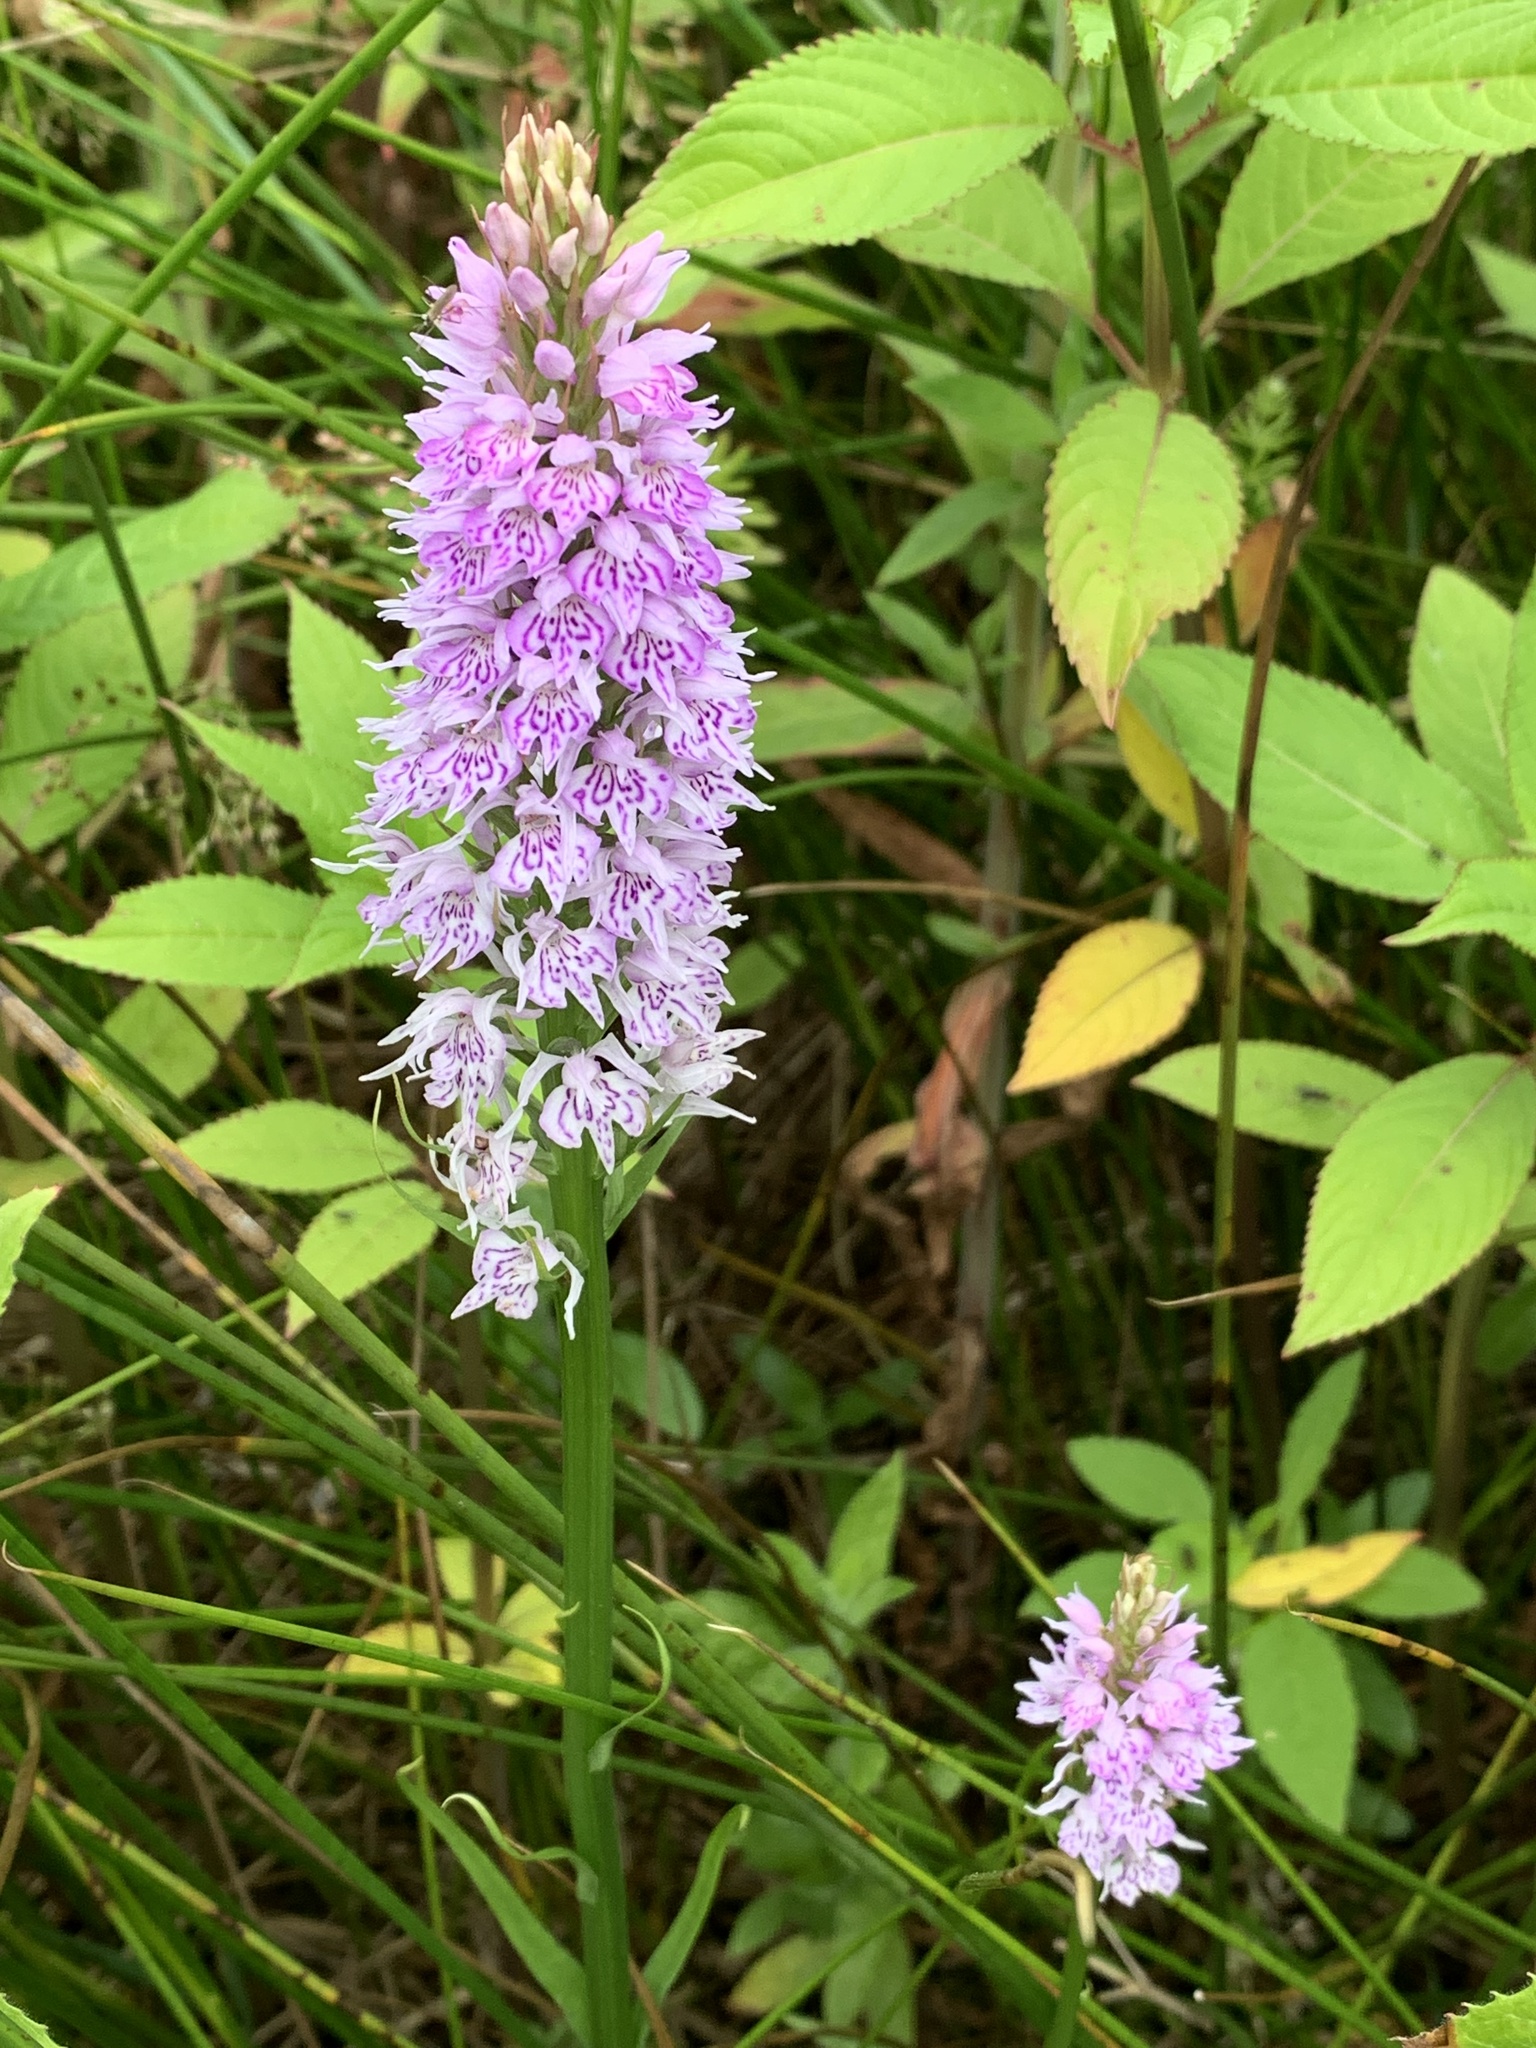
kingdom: Plantae
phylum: Tracheophyta
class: Liliopsida
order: Asparagales
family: Orchidaceae
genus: Dactylorhiza
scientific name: Dactylorhiza maculata
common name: Heath spotted-orchid
